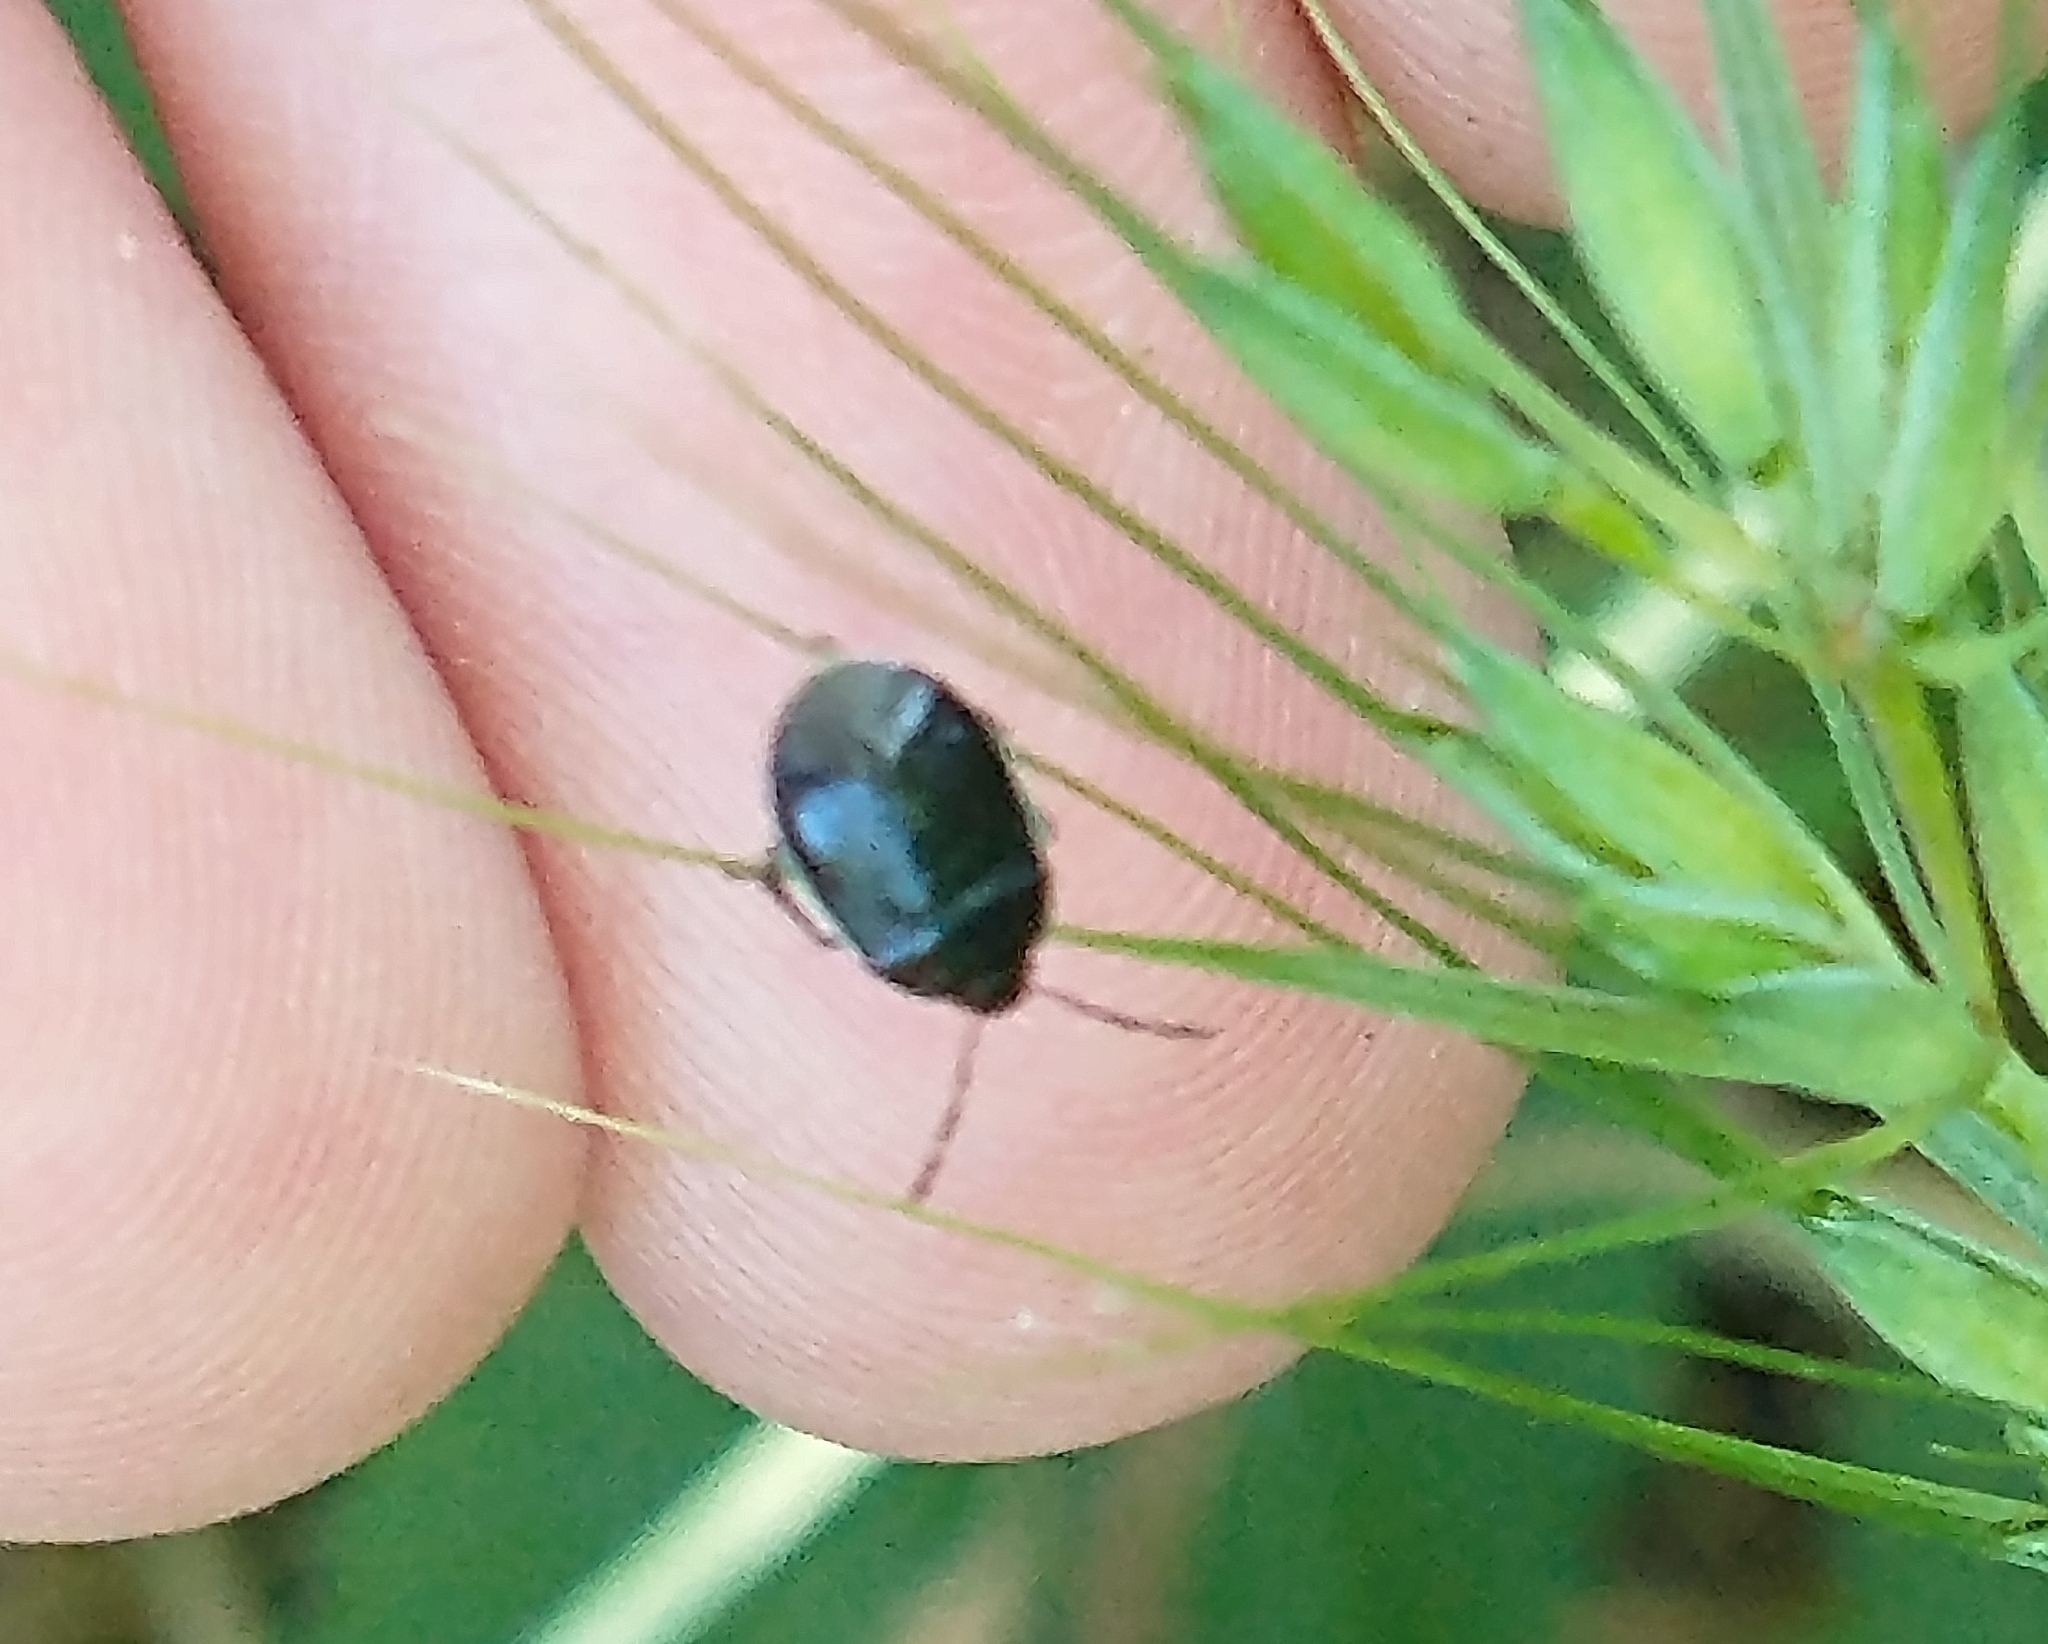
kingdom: Animalia
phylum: Arthropoda
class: Insecta
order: Hemiptera
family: Cydnidae
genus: Sehirus
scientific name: Sehirus cinctus
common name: White-margined burrower bug
